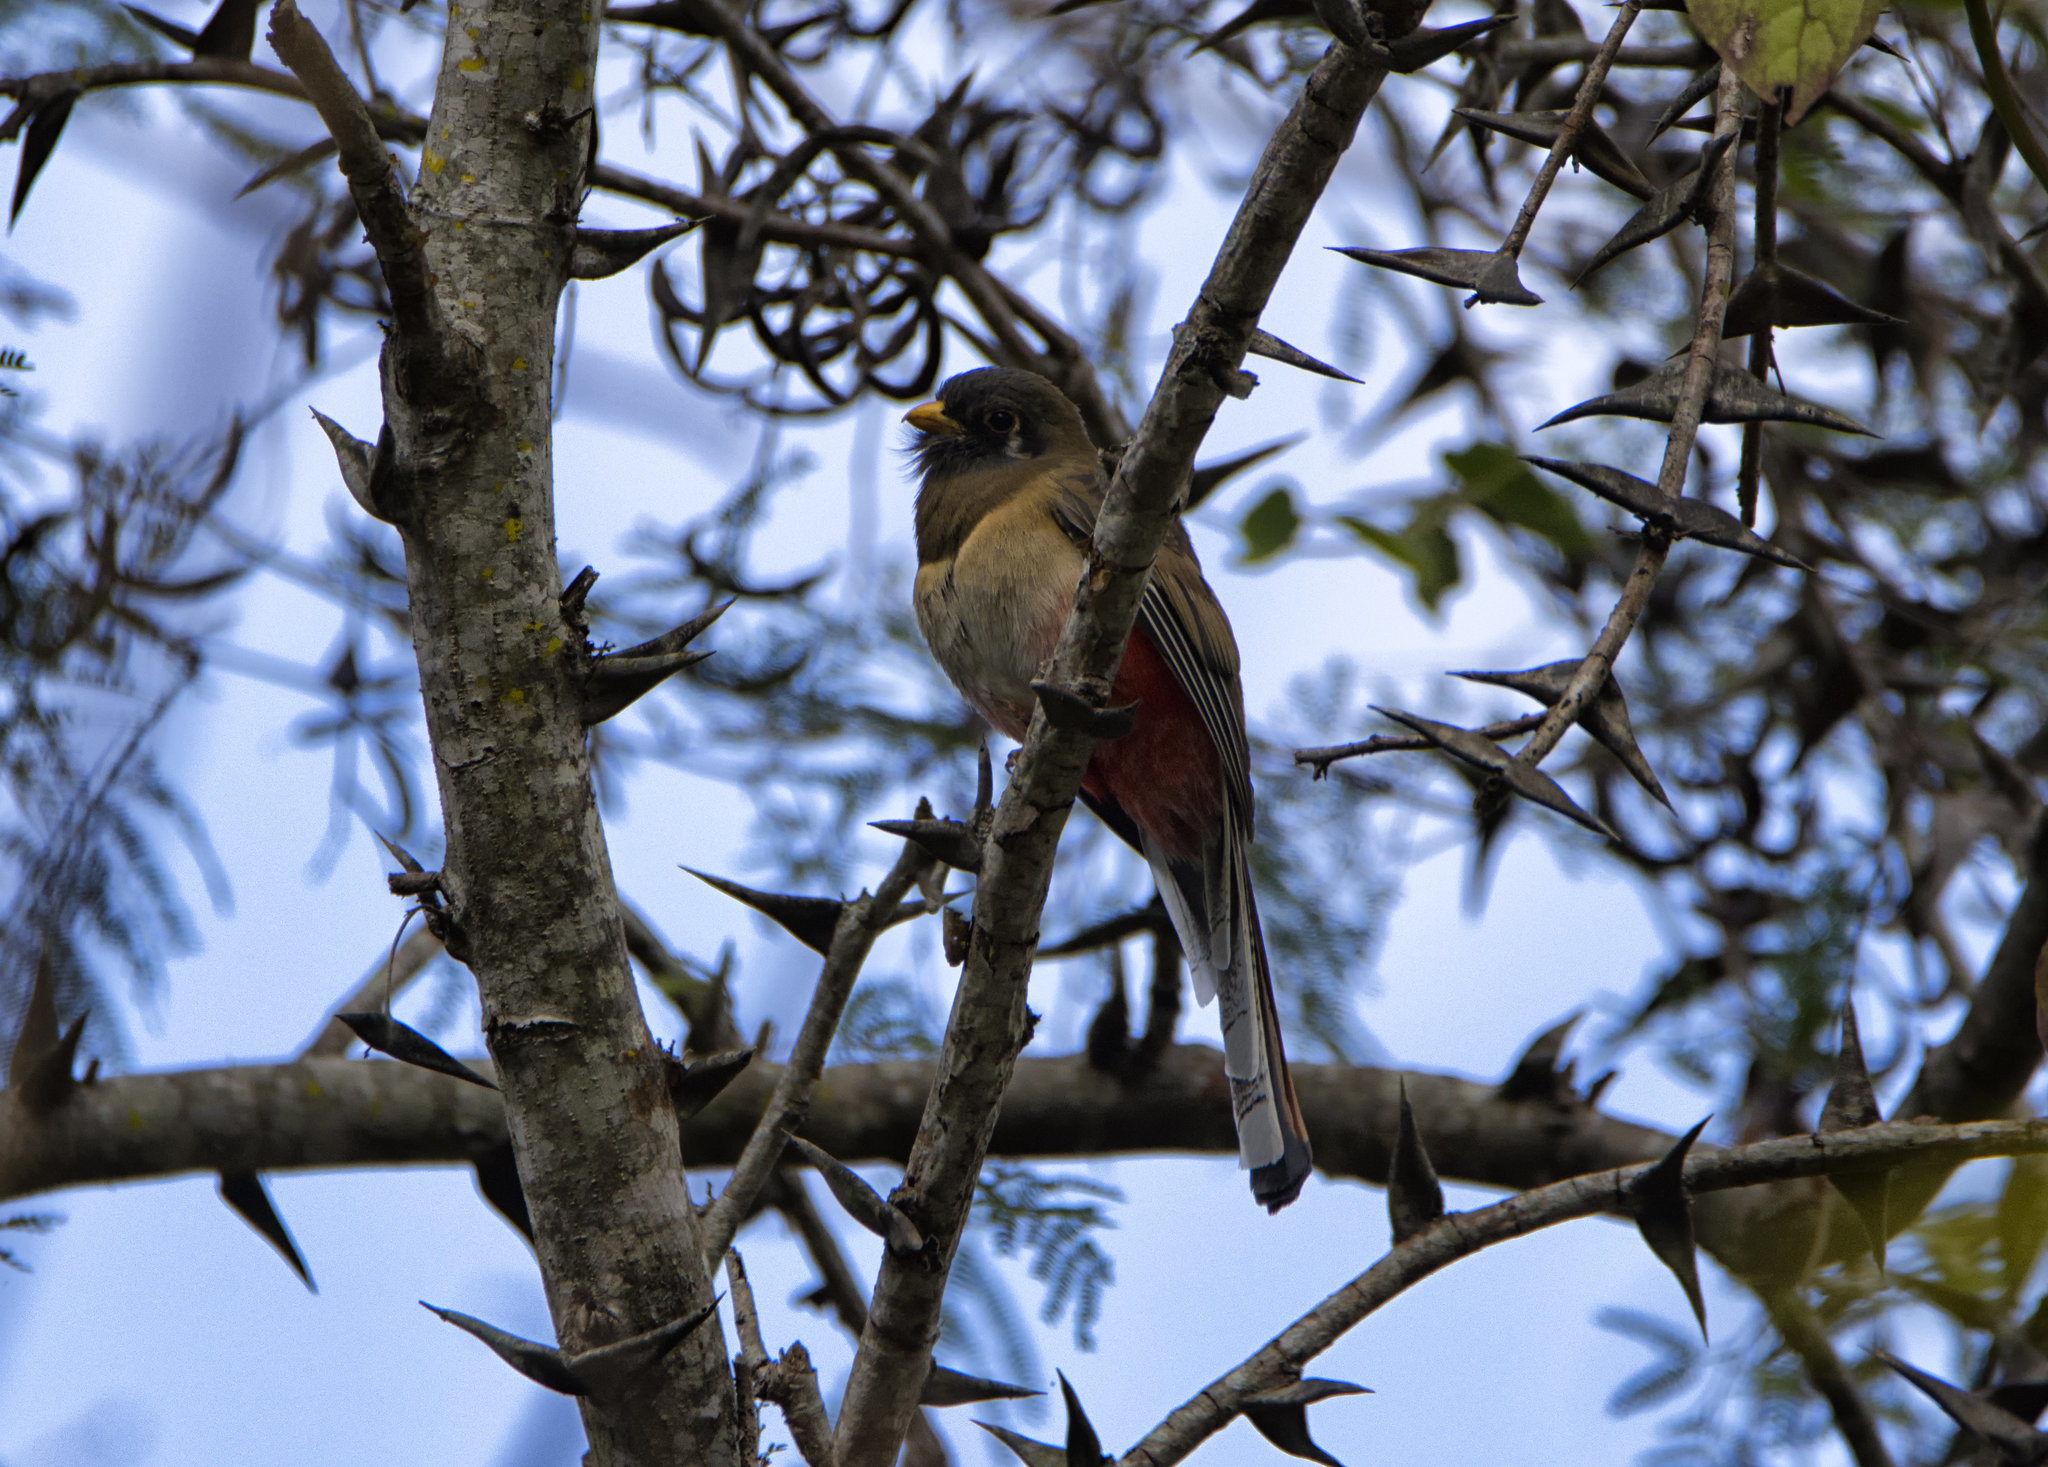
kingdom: Animalia
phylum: Chordata
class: Aves
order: Trogoniformes
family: Trogonidae
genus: Trogon
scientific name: Trogon elegans
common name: Elegant trogon
